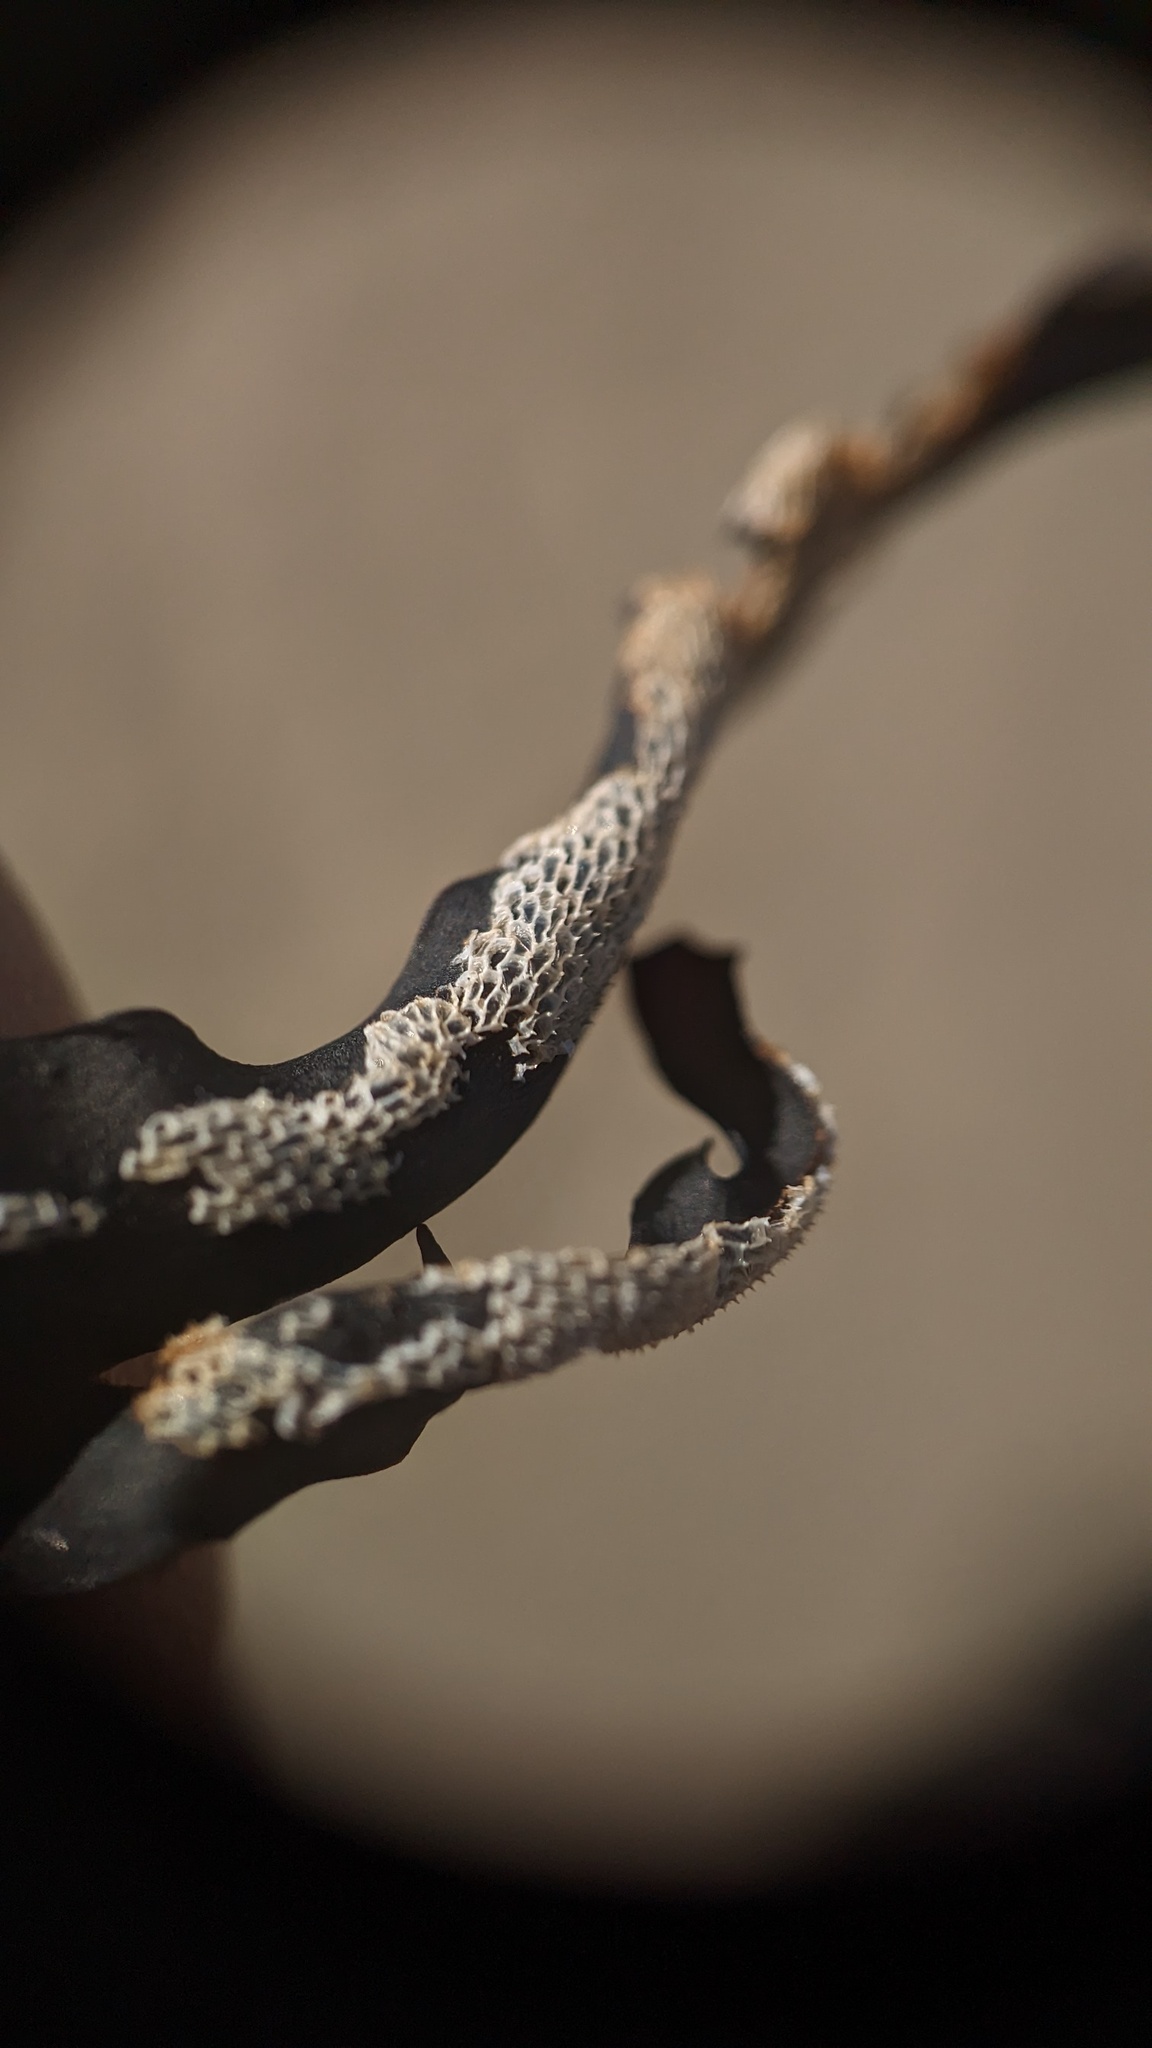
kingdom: Animalia
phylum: Bryozoa
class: Gymnolaemata
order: Cheilostomatida
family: Membraniporidae
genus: Membranipora
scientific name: Membranipora membranacea
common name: Sea mat
